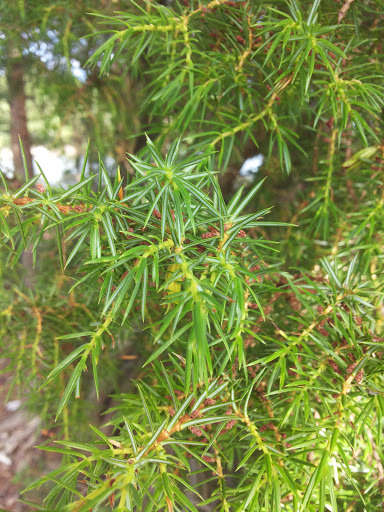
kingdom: Plantae
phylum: Tracheophyta
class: Pinopsida
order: Pinales
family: Cupressaceae
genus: Juniperus
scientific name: Juniperus communis
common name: Common juniper
